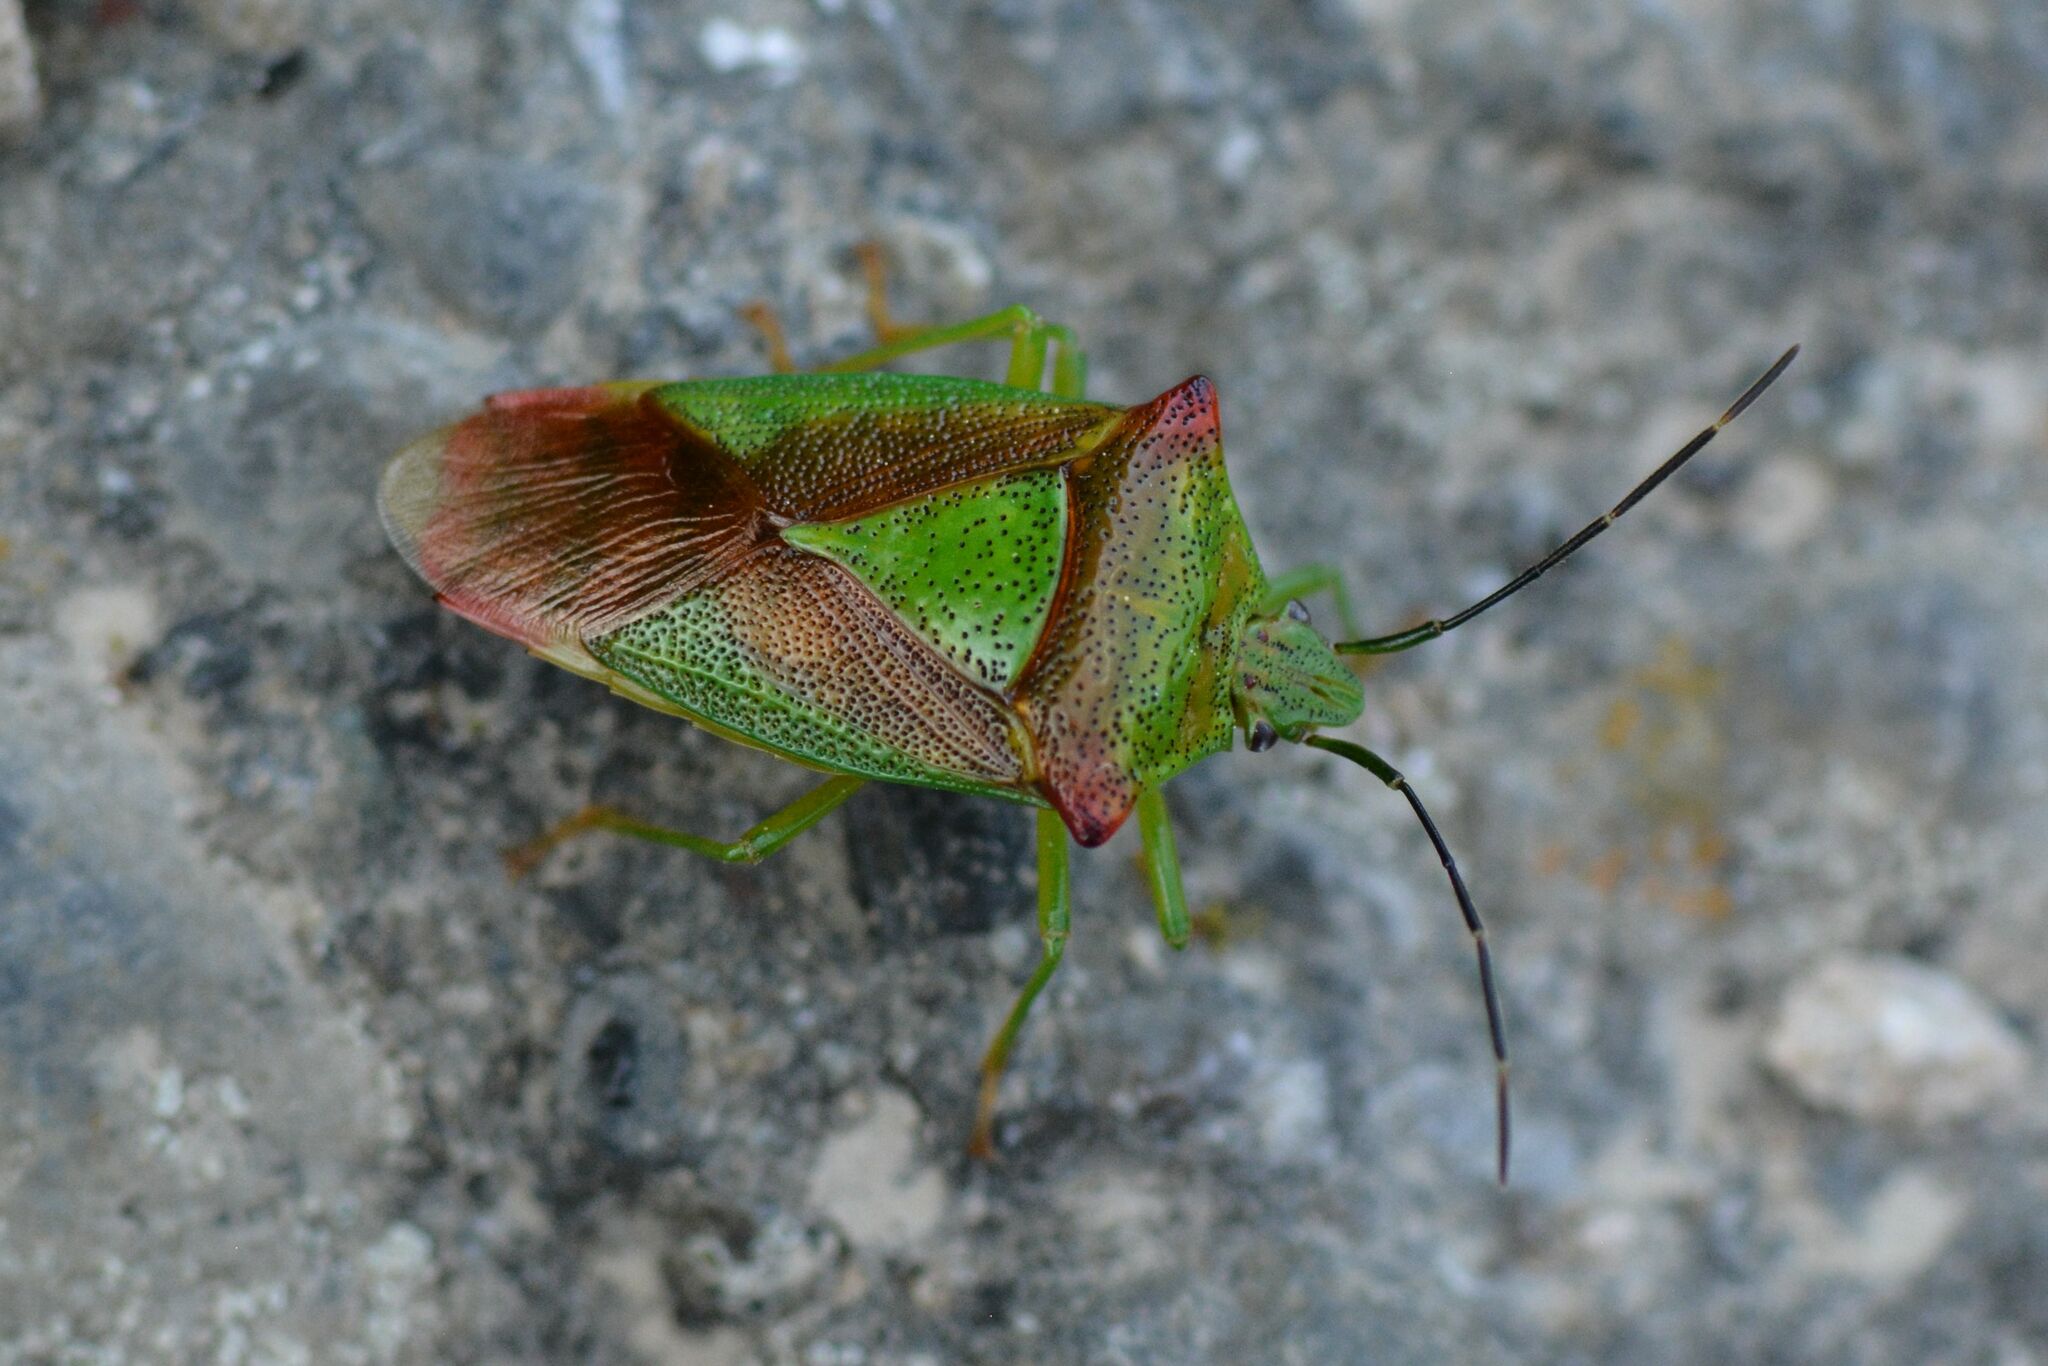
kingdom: Animalia
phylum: Arthropoda
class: Insecta
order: Hemiptera
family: Acanthosomatidae
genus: Acanthosoma
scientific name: Acanthosoma haemorrhoidale
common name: Hawthorn shieldbug
